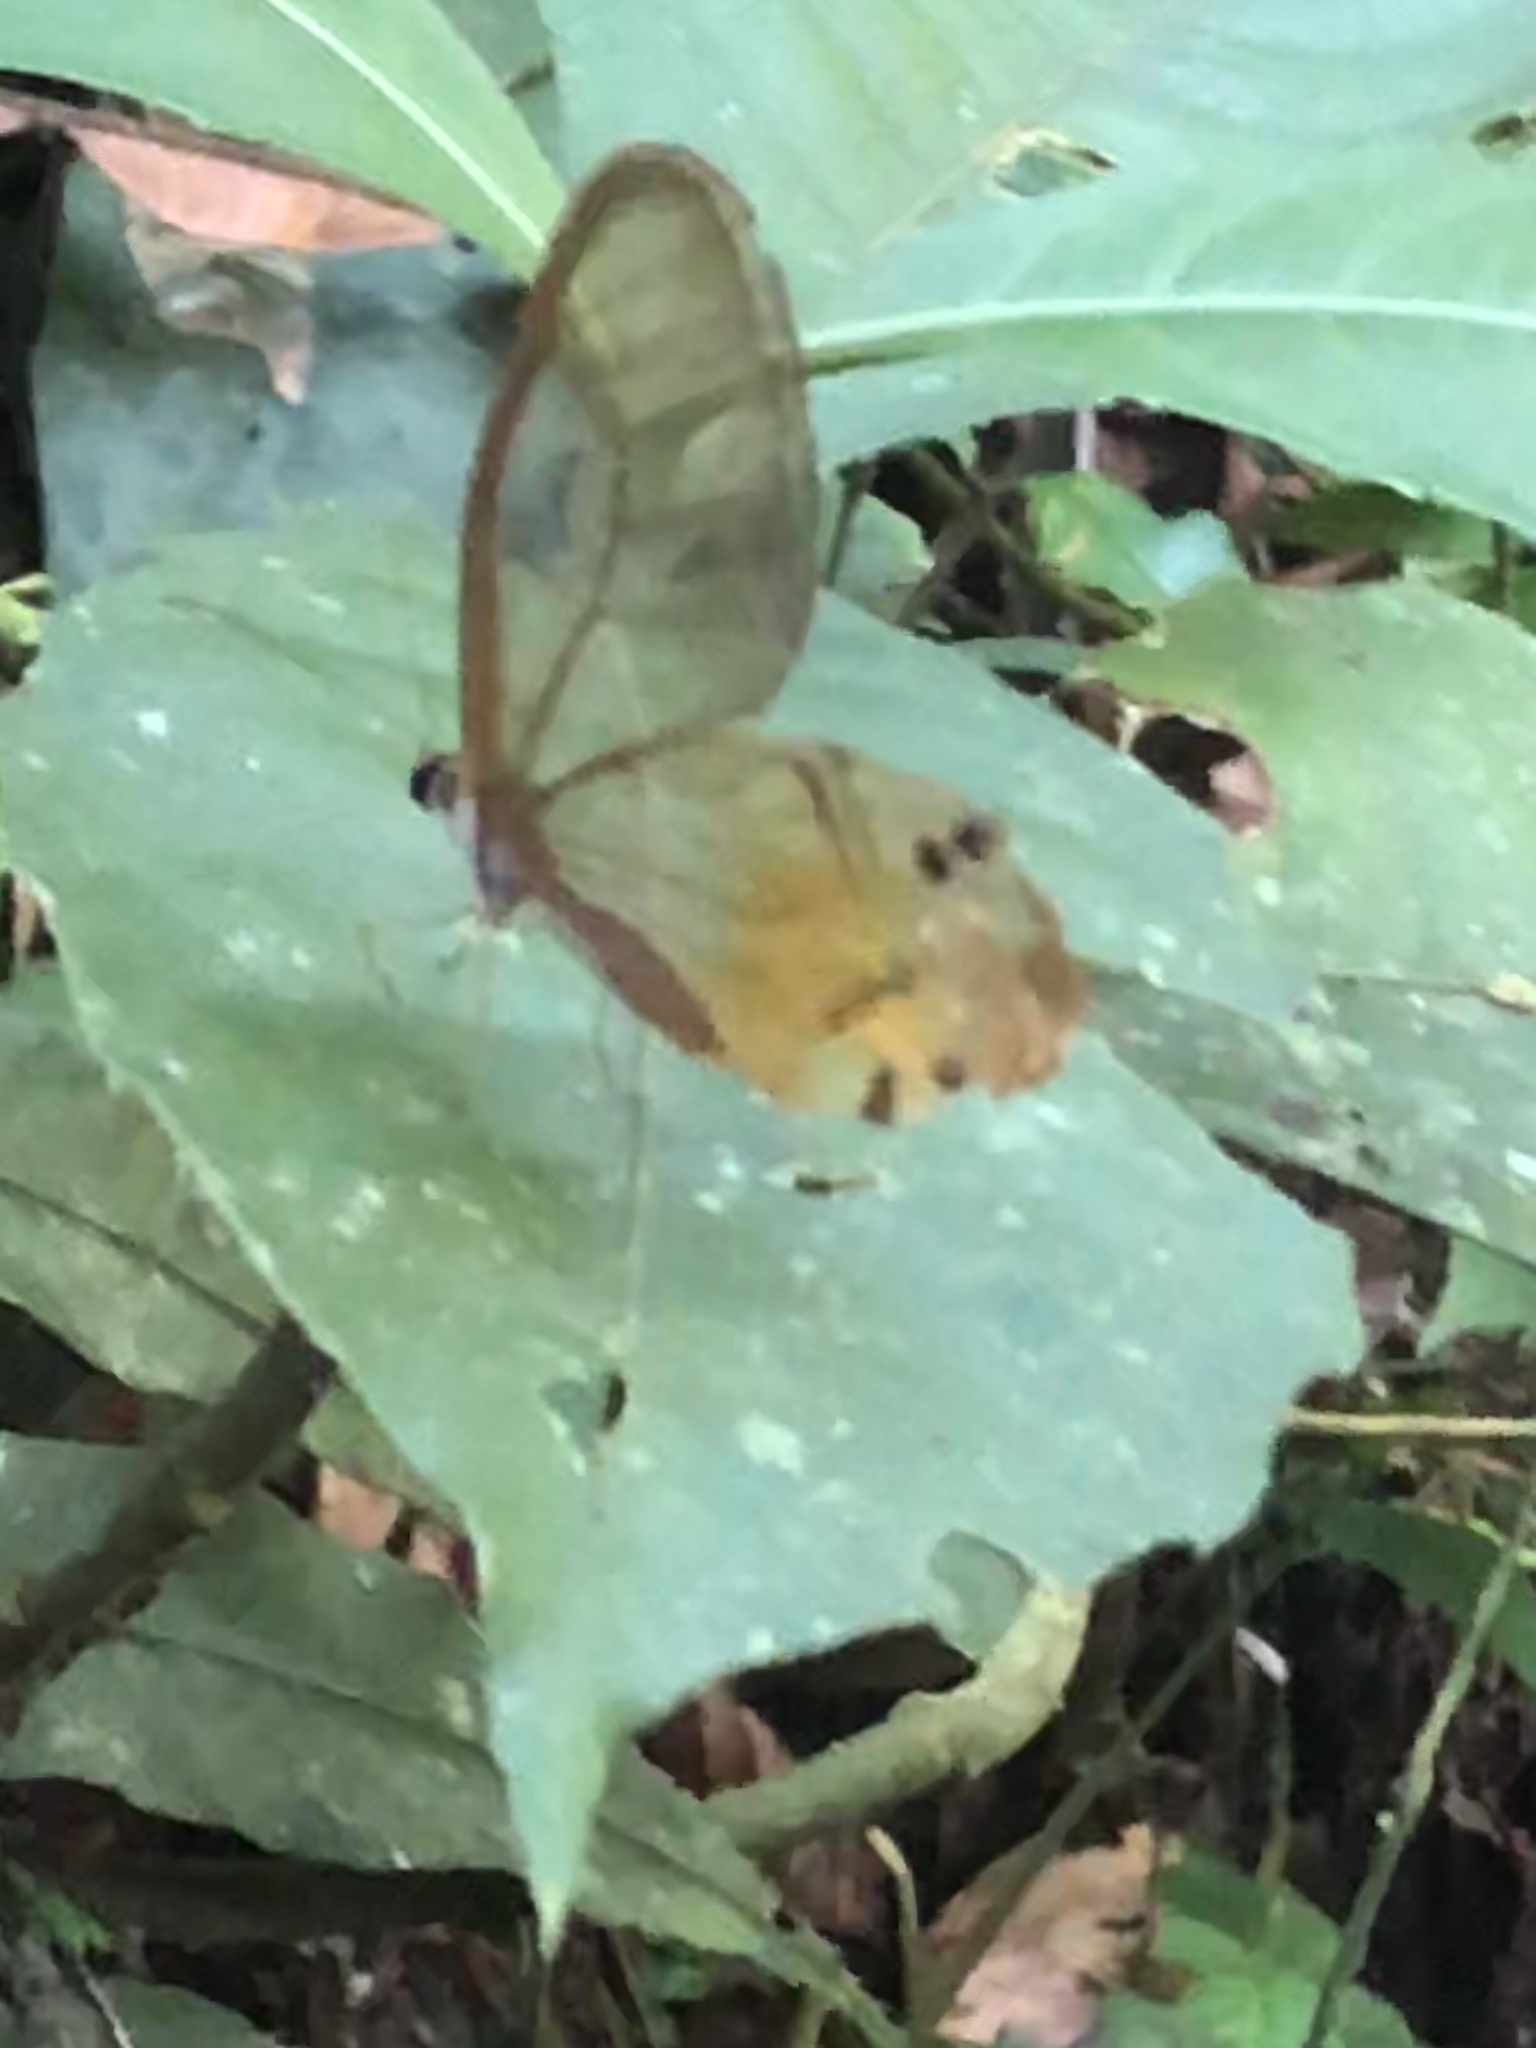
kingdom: Animalia
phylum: Arthropoda
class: Insecta
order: Lepidoptera
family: Nymphalidae
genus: Haetera
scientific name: Haetera piera
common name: Amber phantom
